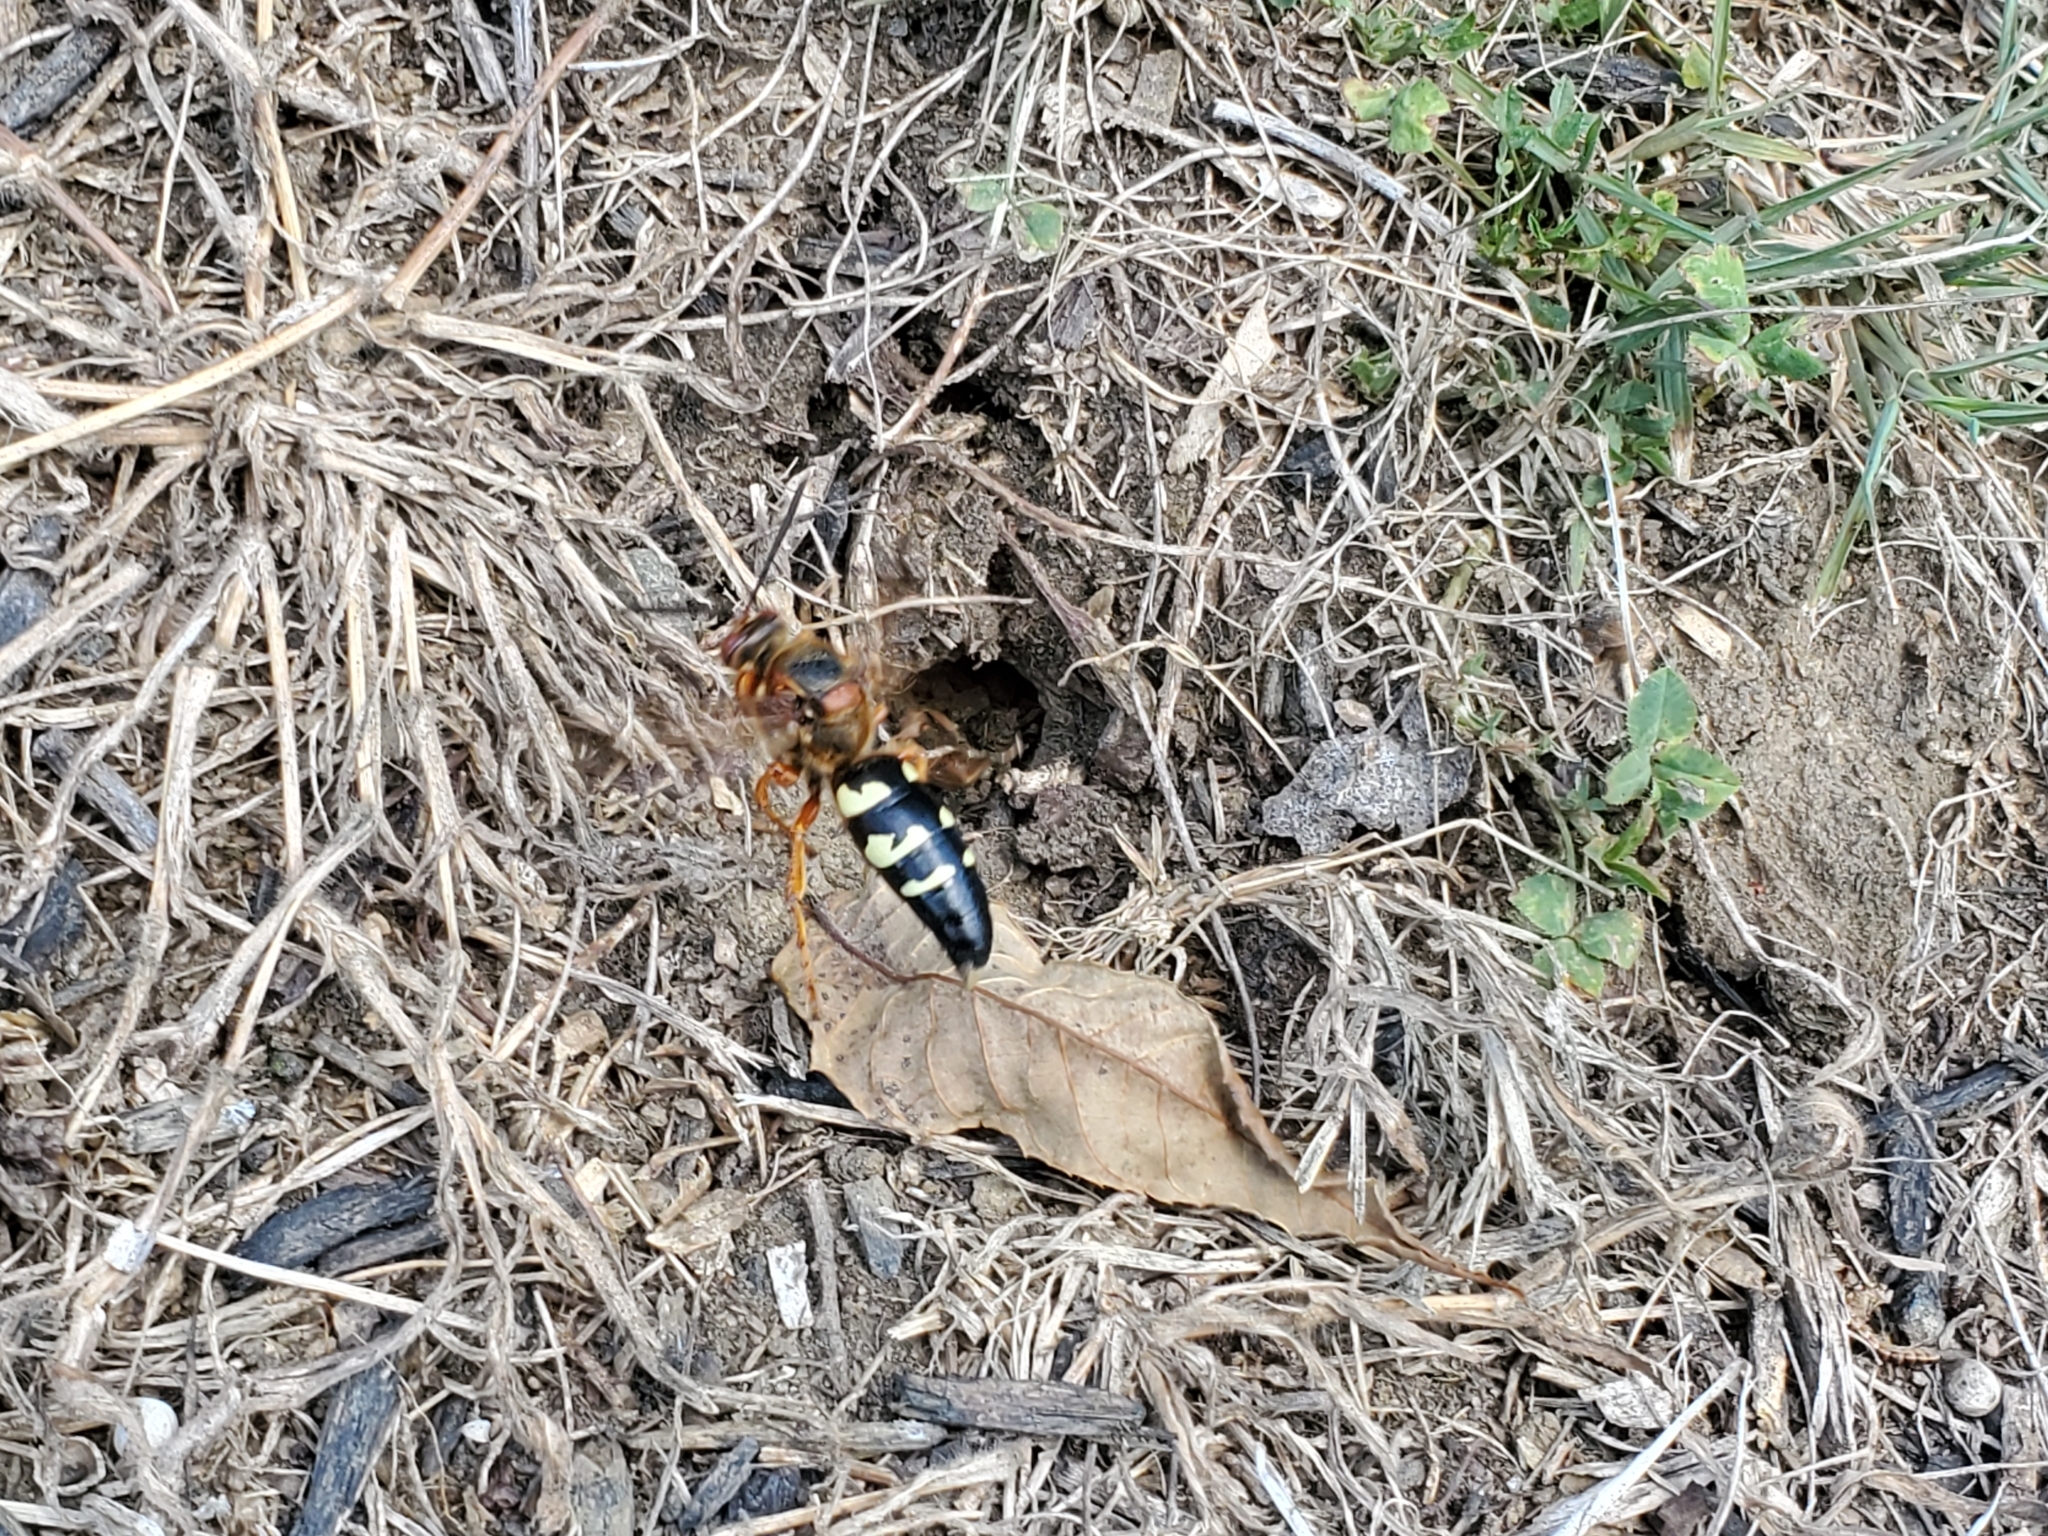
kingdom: Animalia
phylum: Arthropoda
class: Insecta
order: Hymenoptera
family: Crabronidae
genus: Sphecius
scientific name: Sphecius speciosus
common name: Cicada killer
